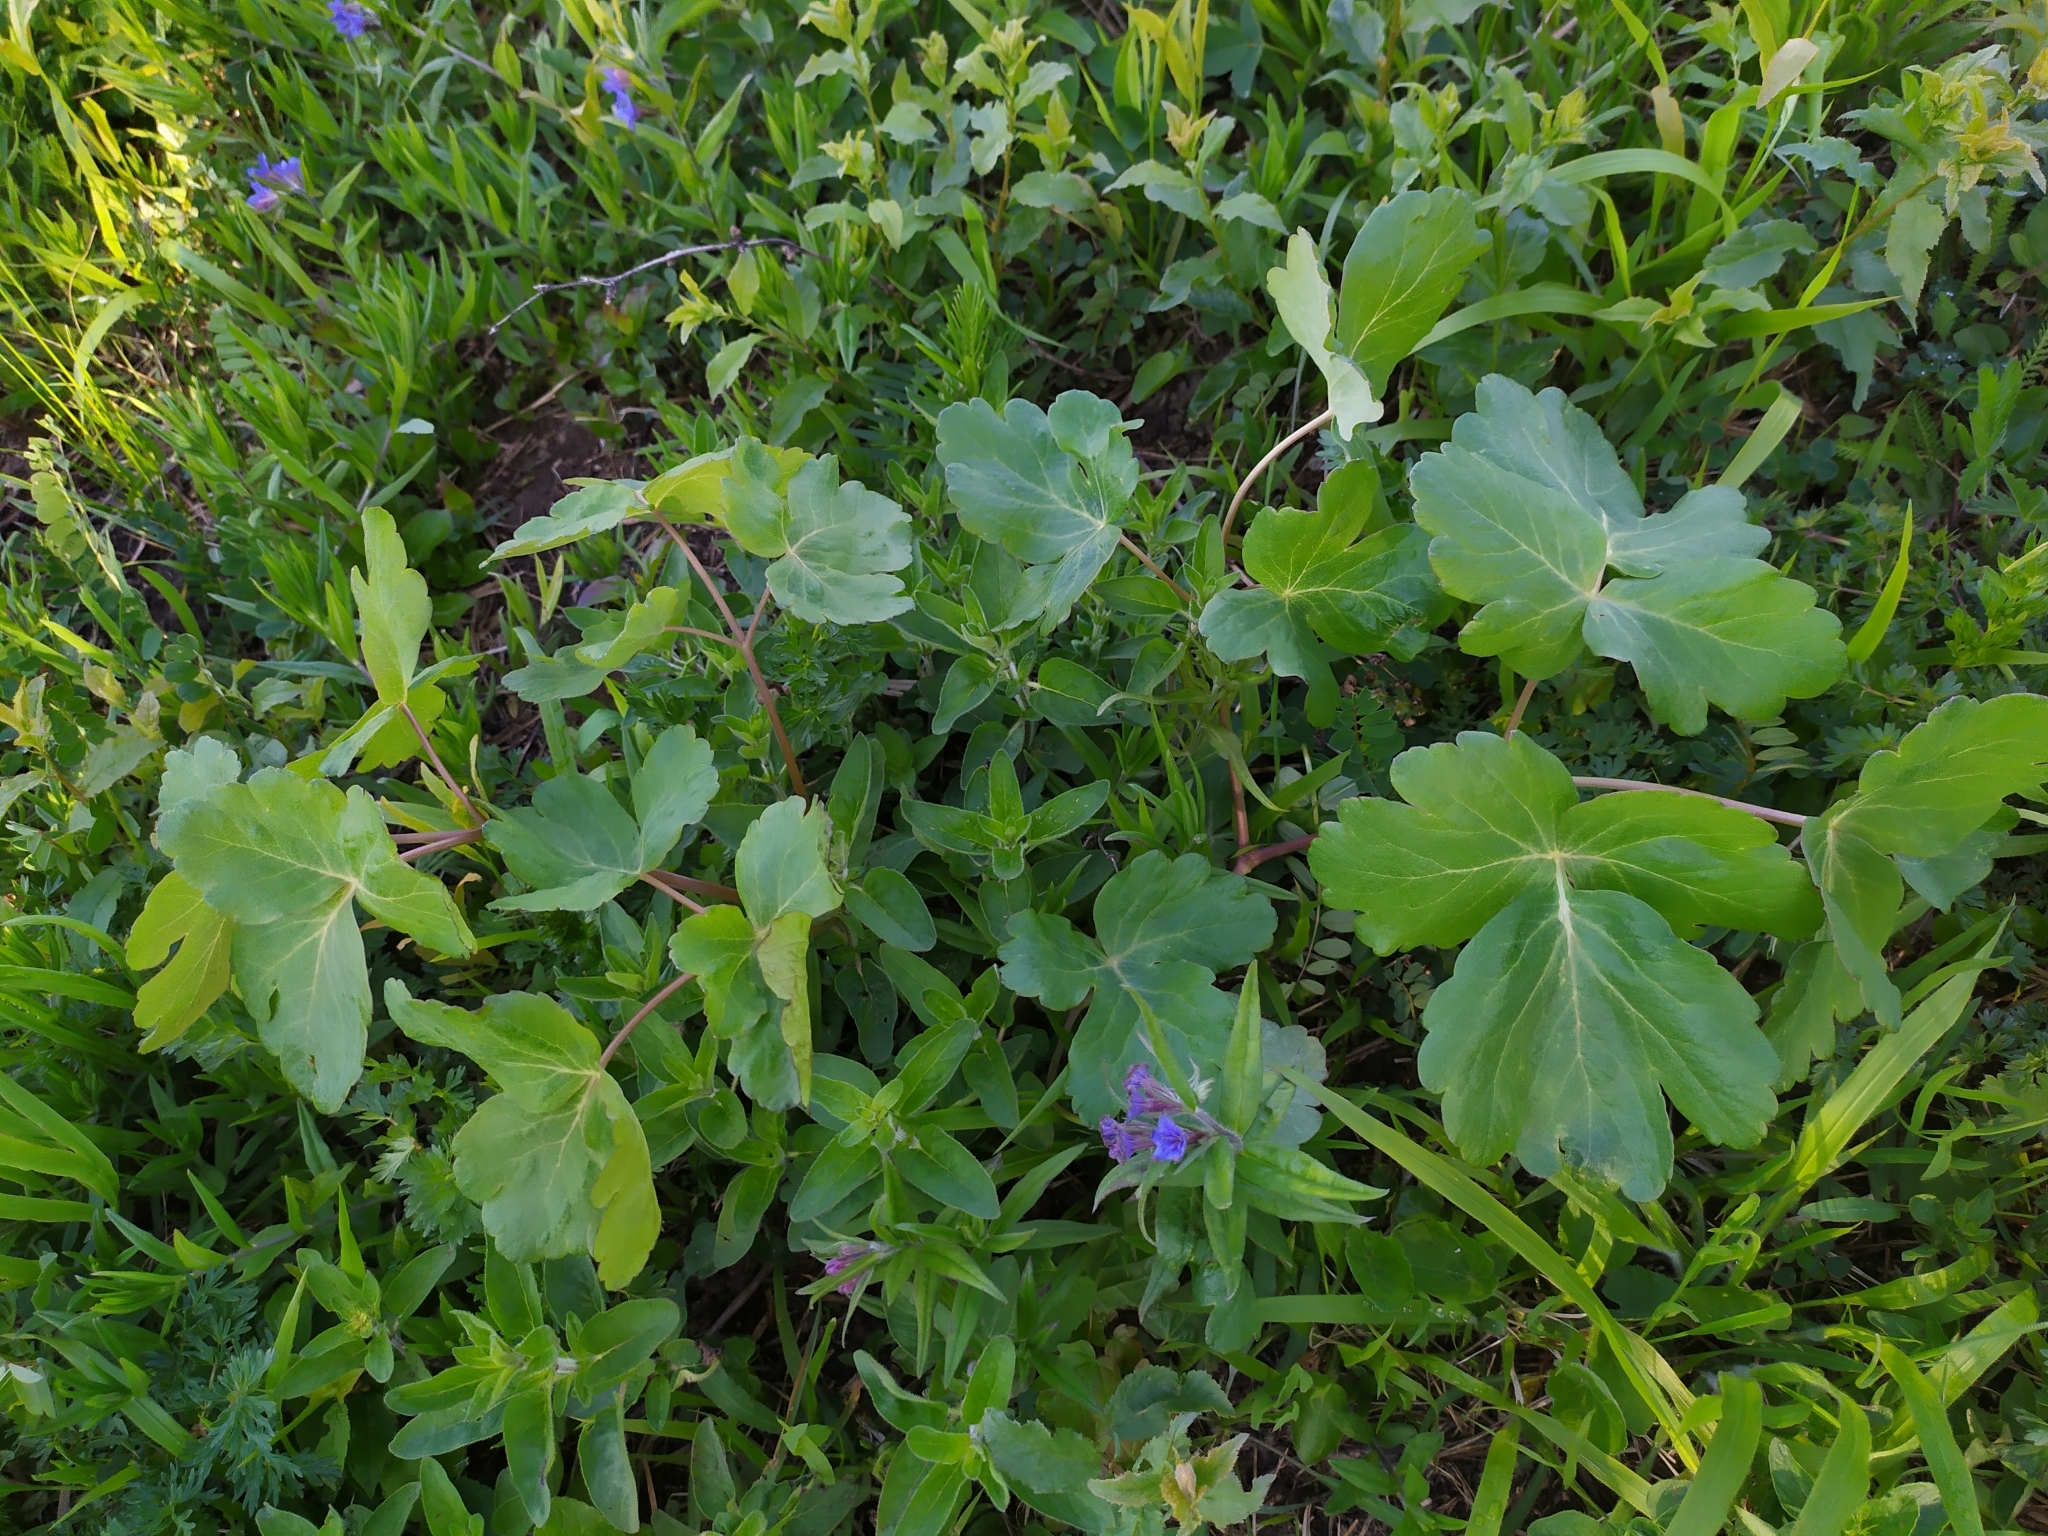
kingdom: Plantae
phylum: Tracheophyta
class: Magnoliopsida
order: Apiales
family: Apiaceae
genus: Laser
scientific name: Laser trilobum
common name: Laser
